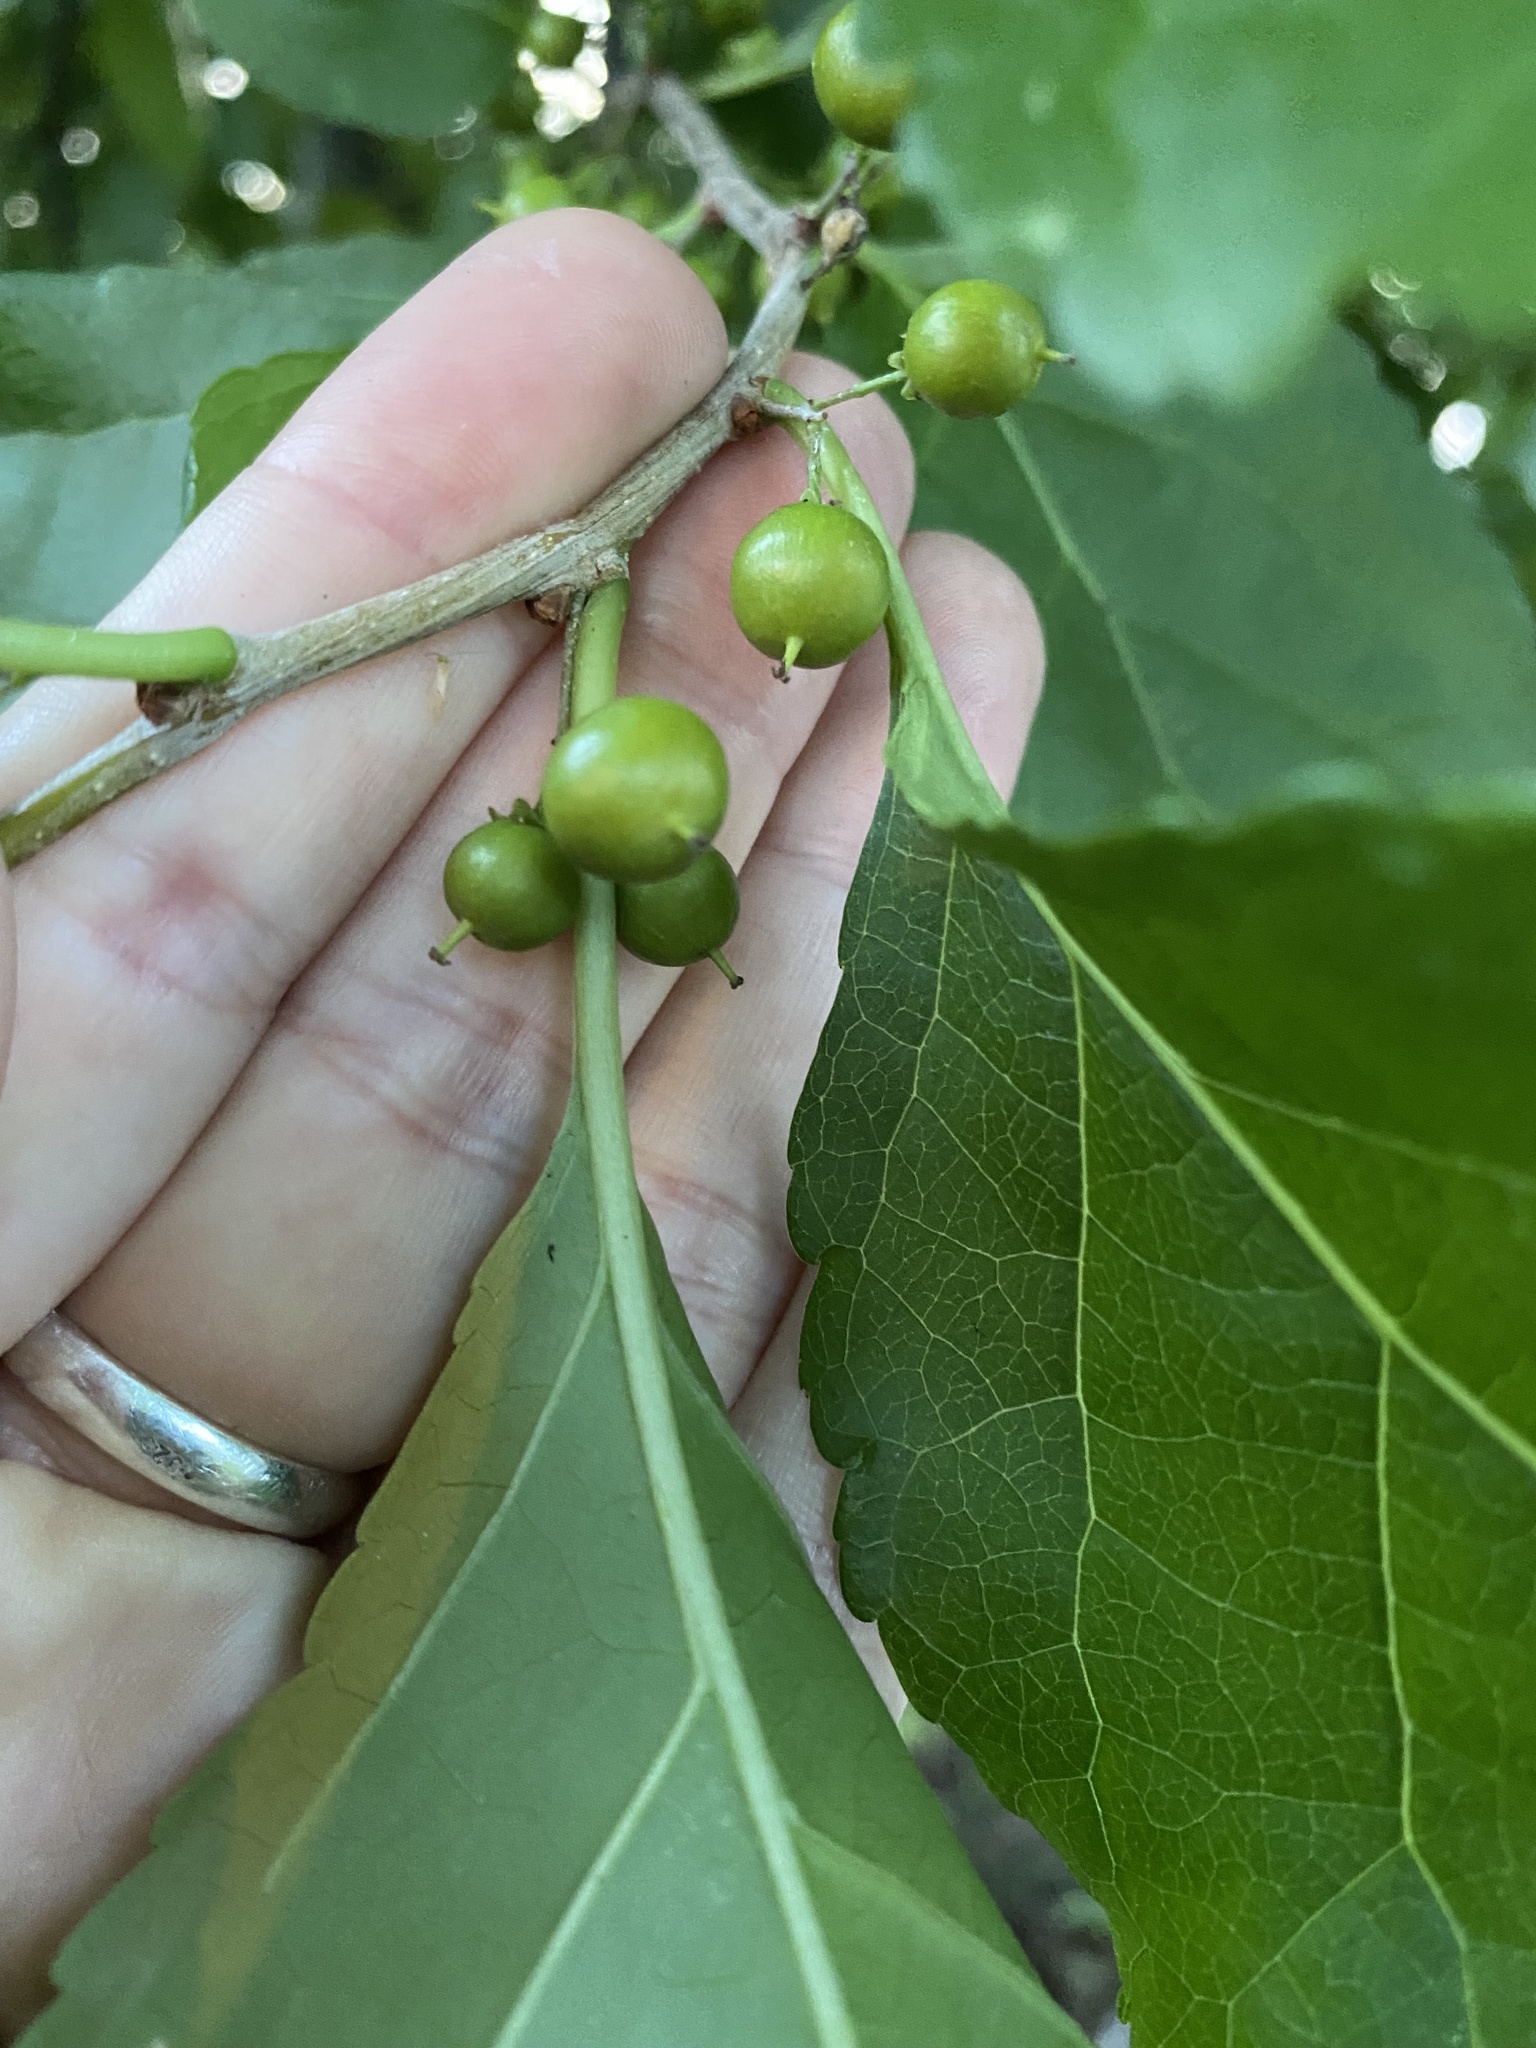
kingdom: Plantae
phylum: Tracheophyta
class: Magnoliopsida
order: Celastrales
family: Celastraceae
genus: Celastrus
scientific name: Celastrus orbiculatus
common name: Oriental bittersweet
